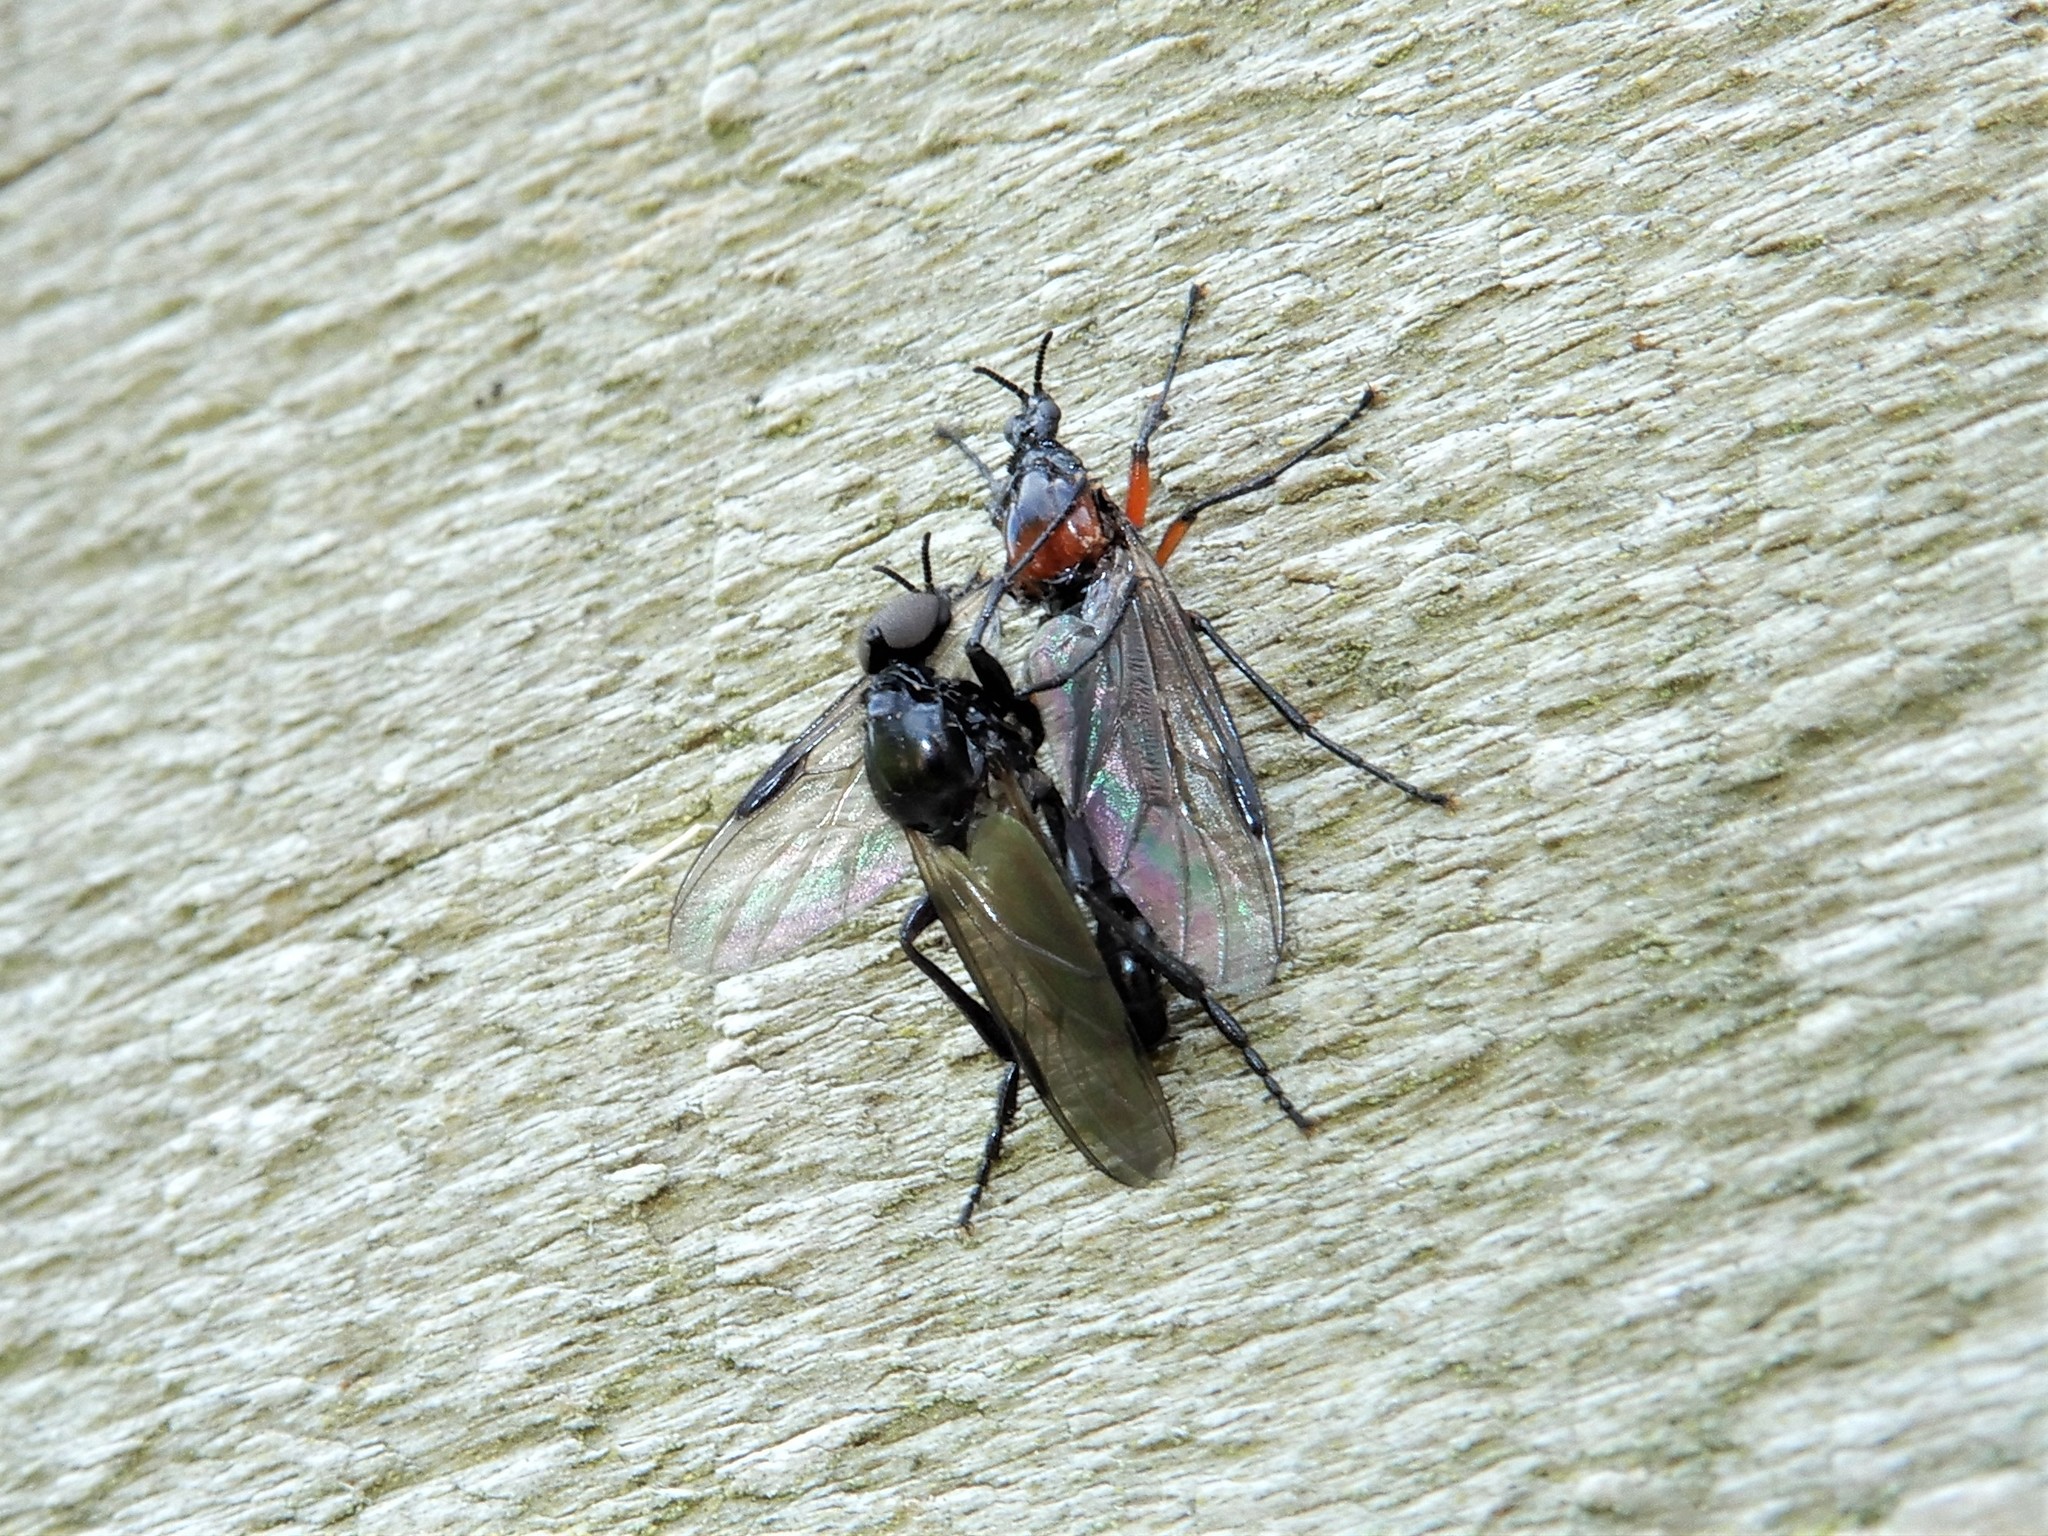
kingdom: Animalia
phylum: Arthropoda
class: Insecta
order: Diptera
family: Bibionidae
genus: Dilophus
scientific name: Dilophus nigrostigma
